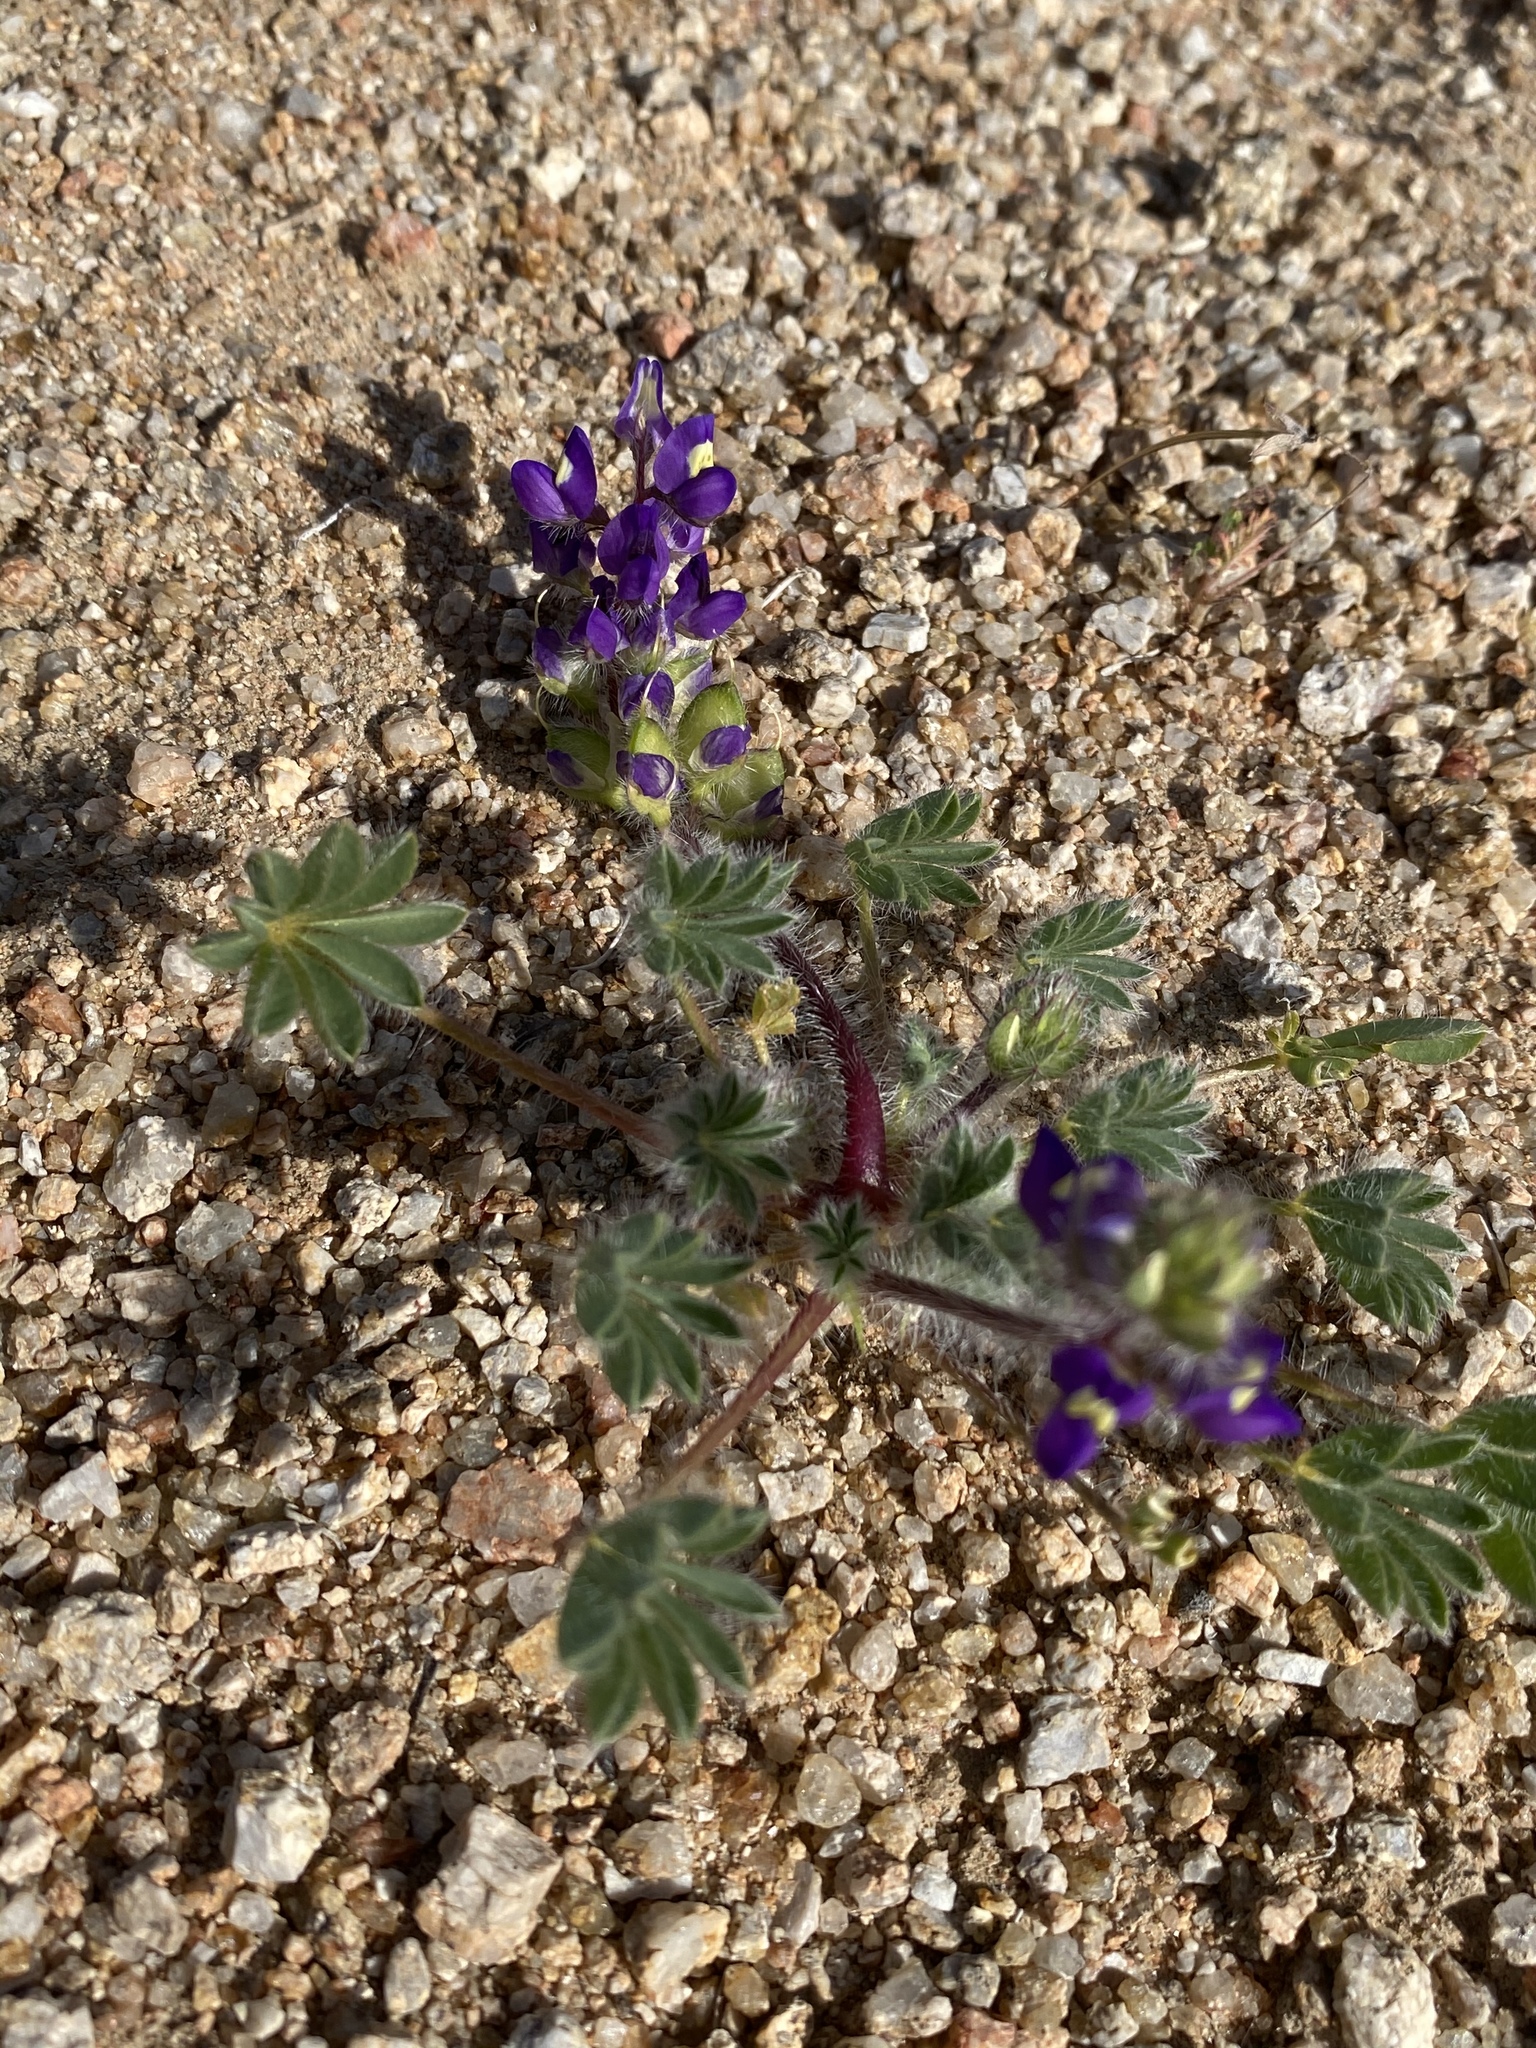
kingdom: Plantae
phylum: Tracheophyta
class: Magnoliopsida
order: Fabales
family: Fabaceae
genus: Lupinus
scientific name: Lupinus flavoculatus
